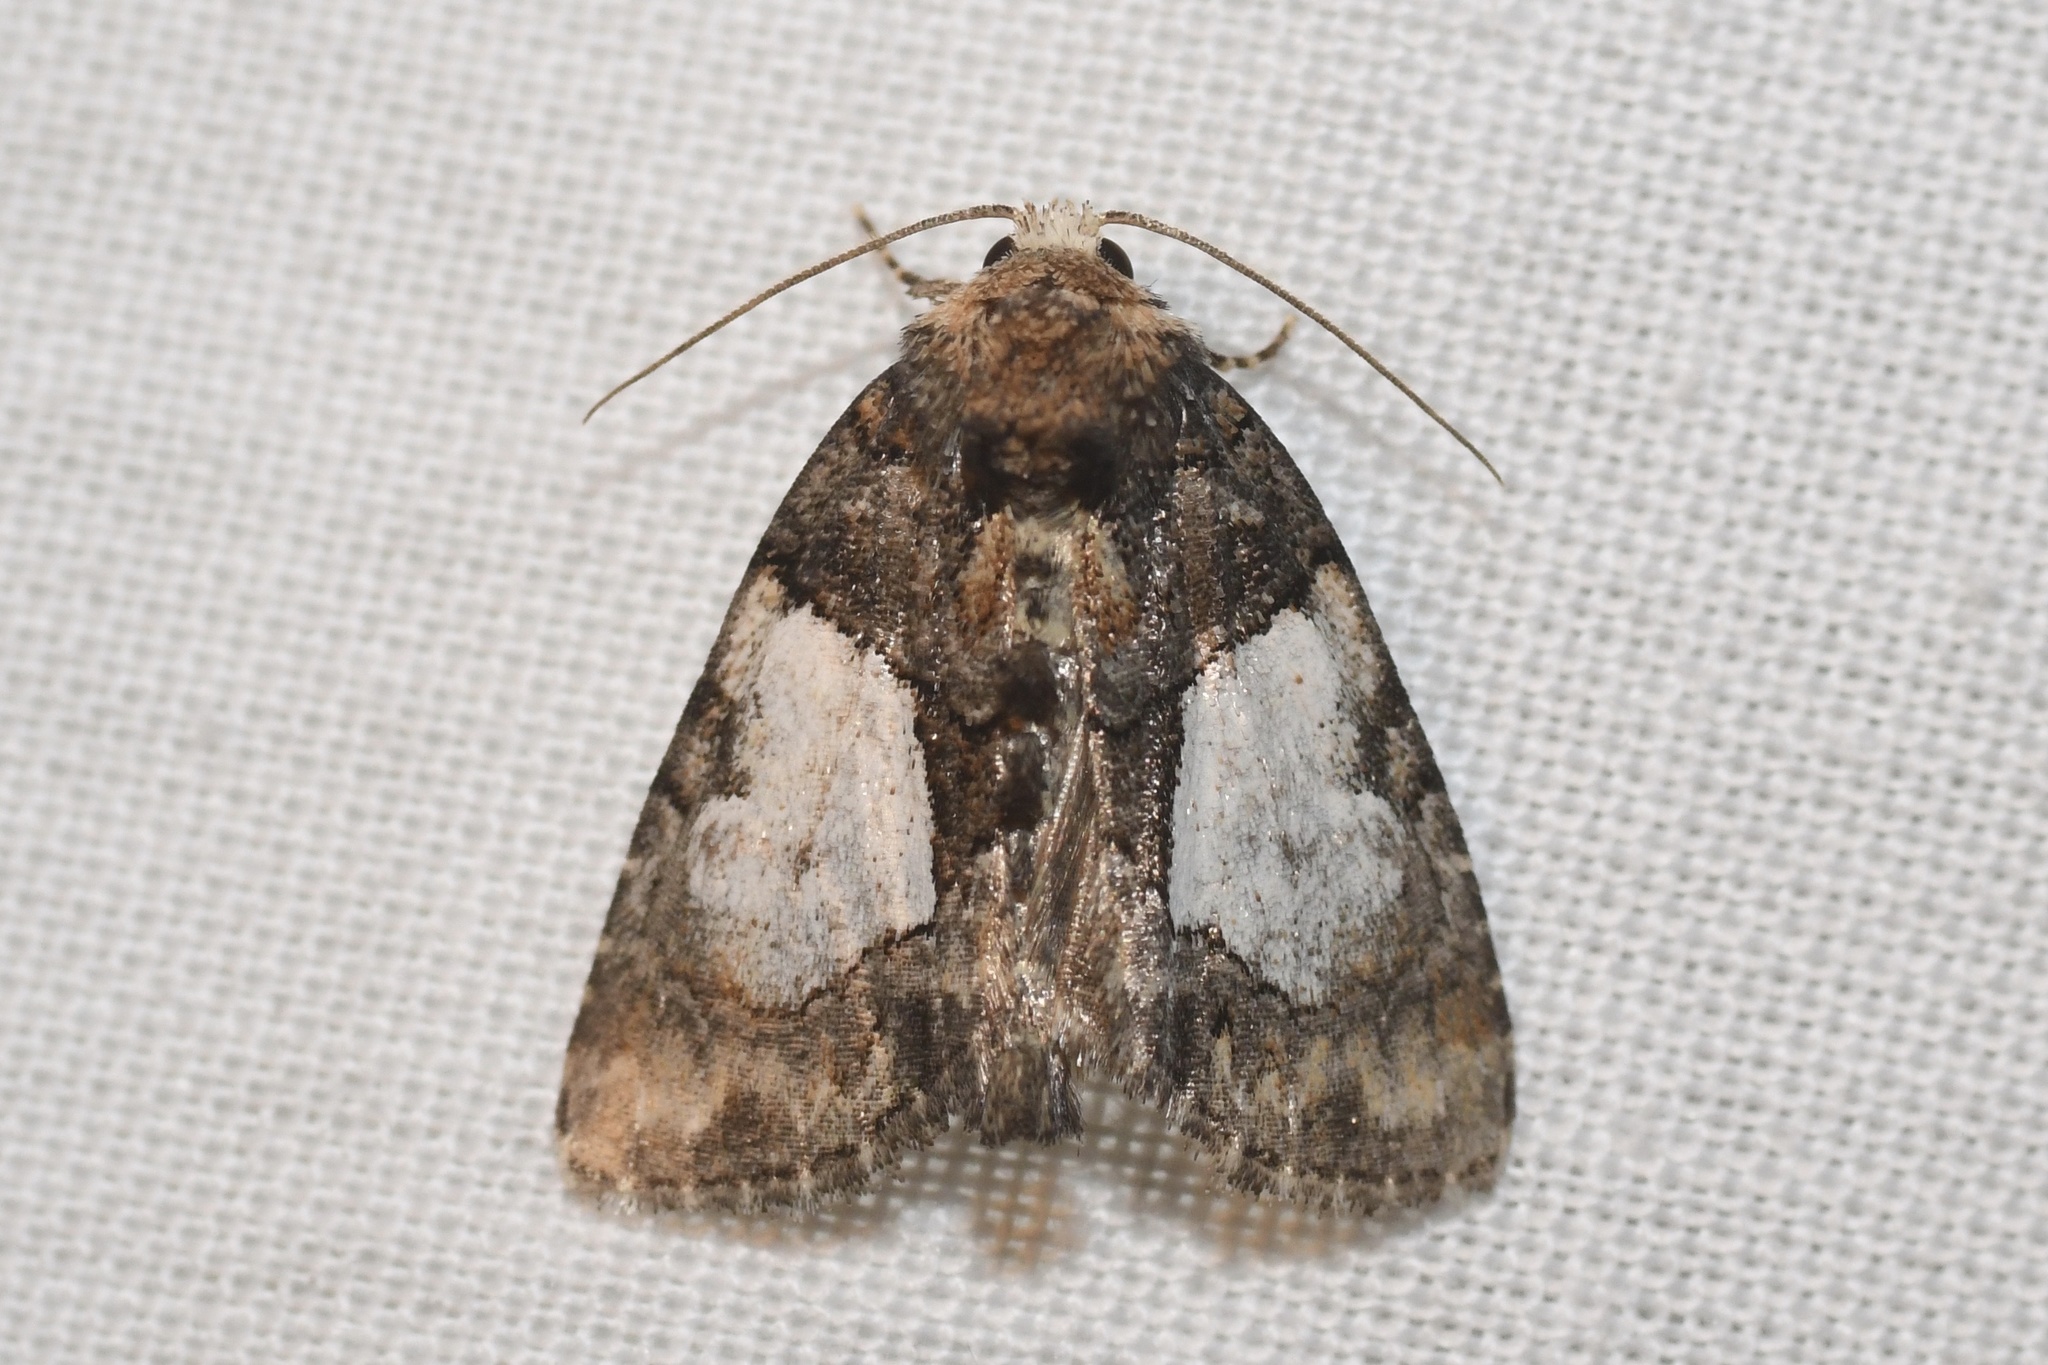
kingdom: Animalia
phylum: Arthropoda
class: Insecta
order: Lepidoptera
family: Noctuidae
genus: Chytonix
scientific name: Chytonix palliatricula
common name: Cloaked marvel
